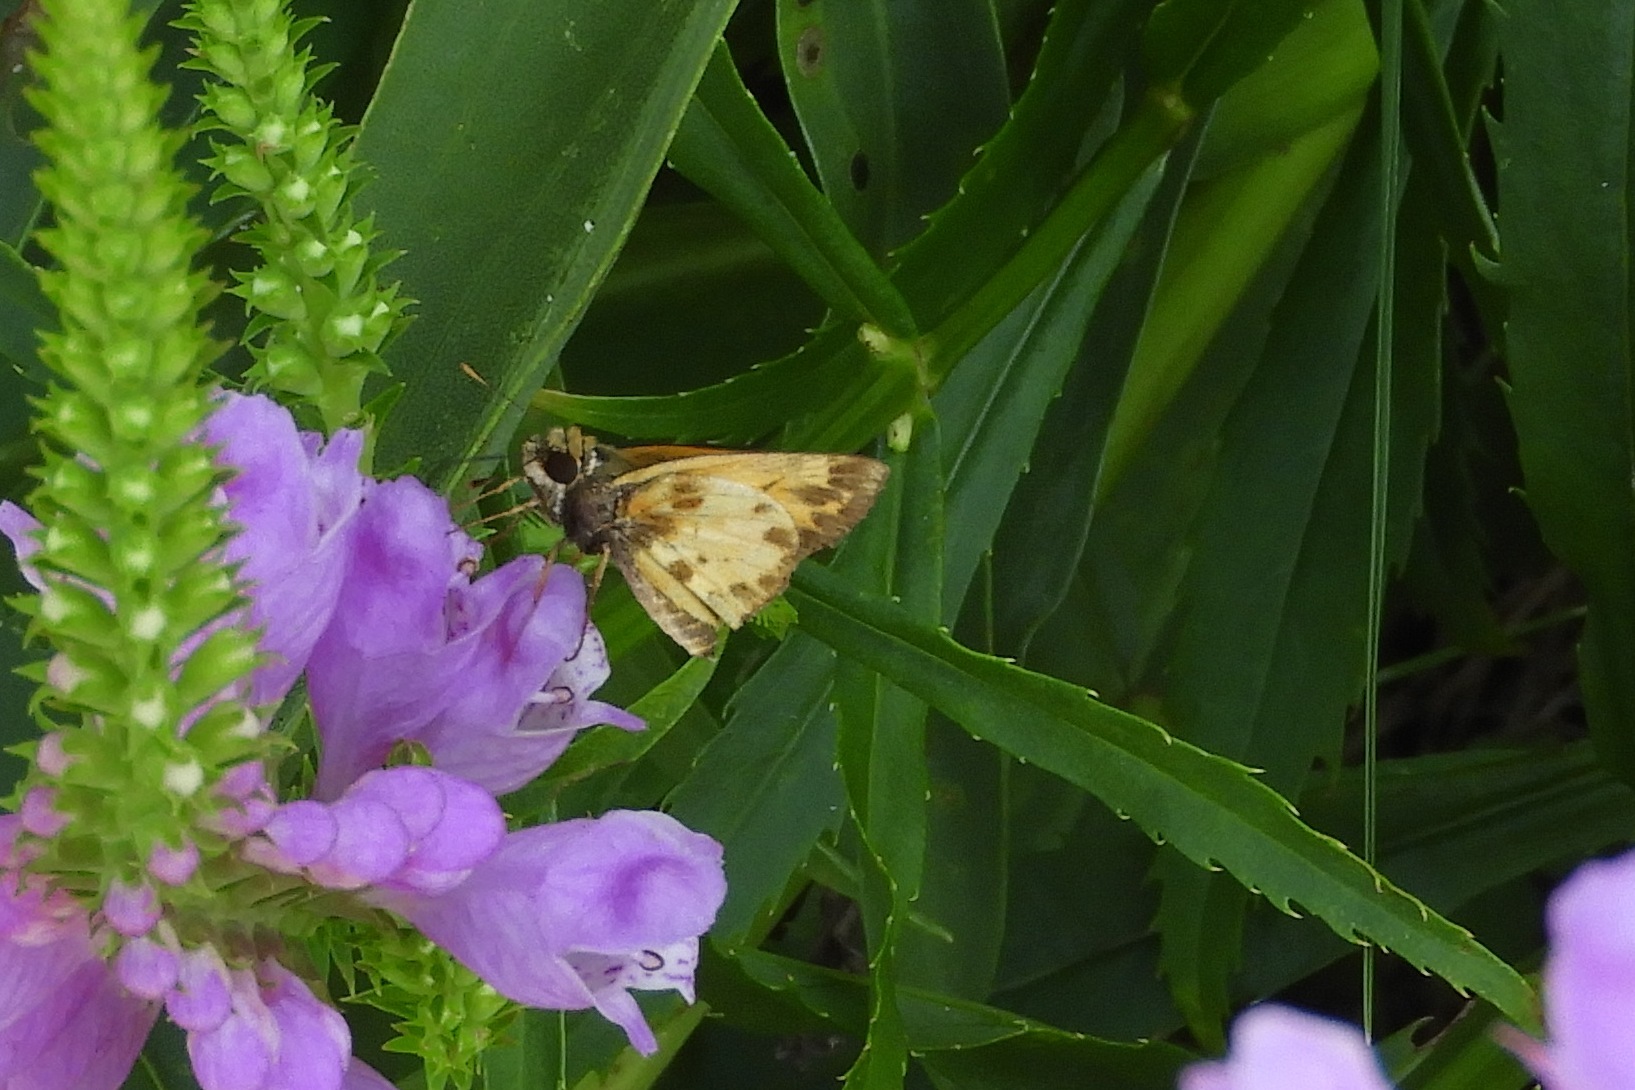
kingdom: Animalia
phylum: Arthropoda
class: Insecta
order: Lepidoptera
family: Hesperiidae
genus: Lon
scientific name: Lon zabulon
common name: Zabulon skipper
